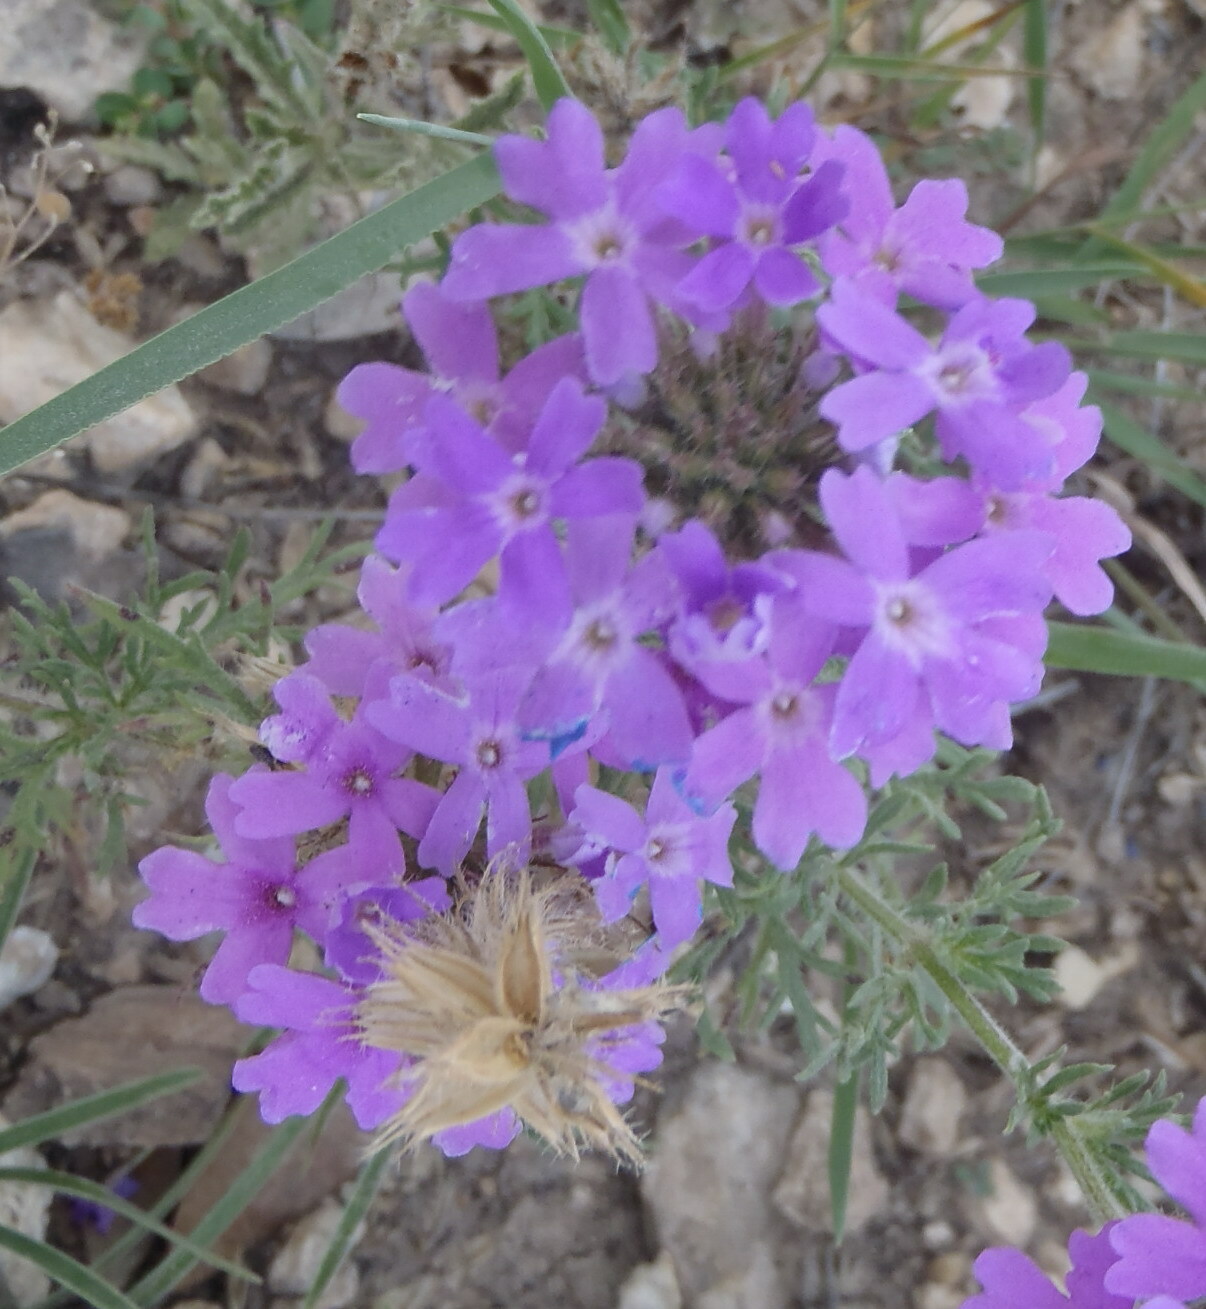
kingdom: Plantae
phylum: Tracheophyta
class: Magnoliopsida
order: Lamiales
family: Verbenaceae
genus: Verbena
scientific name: Verbena bipinnatifida
